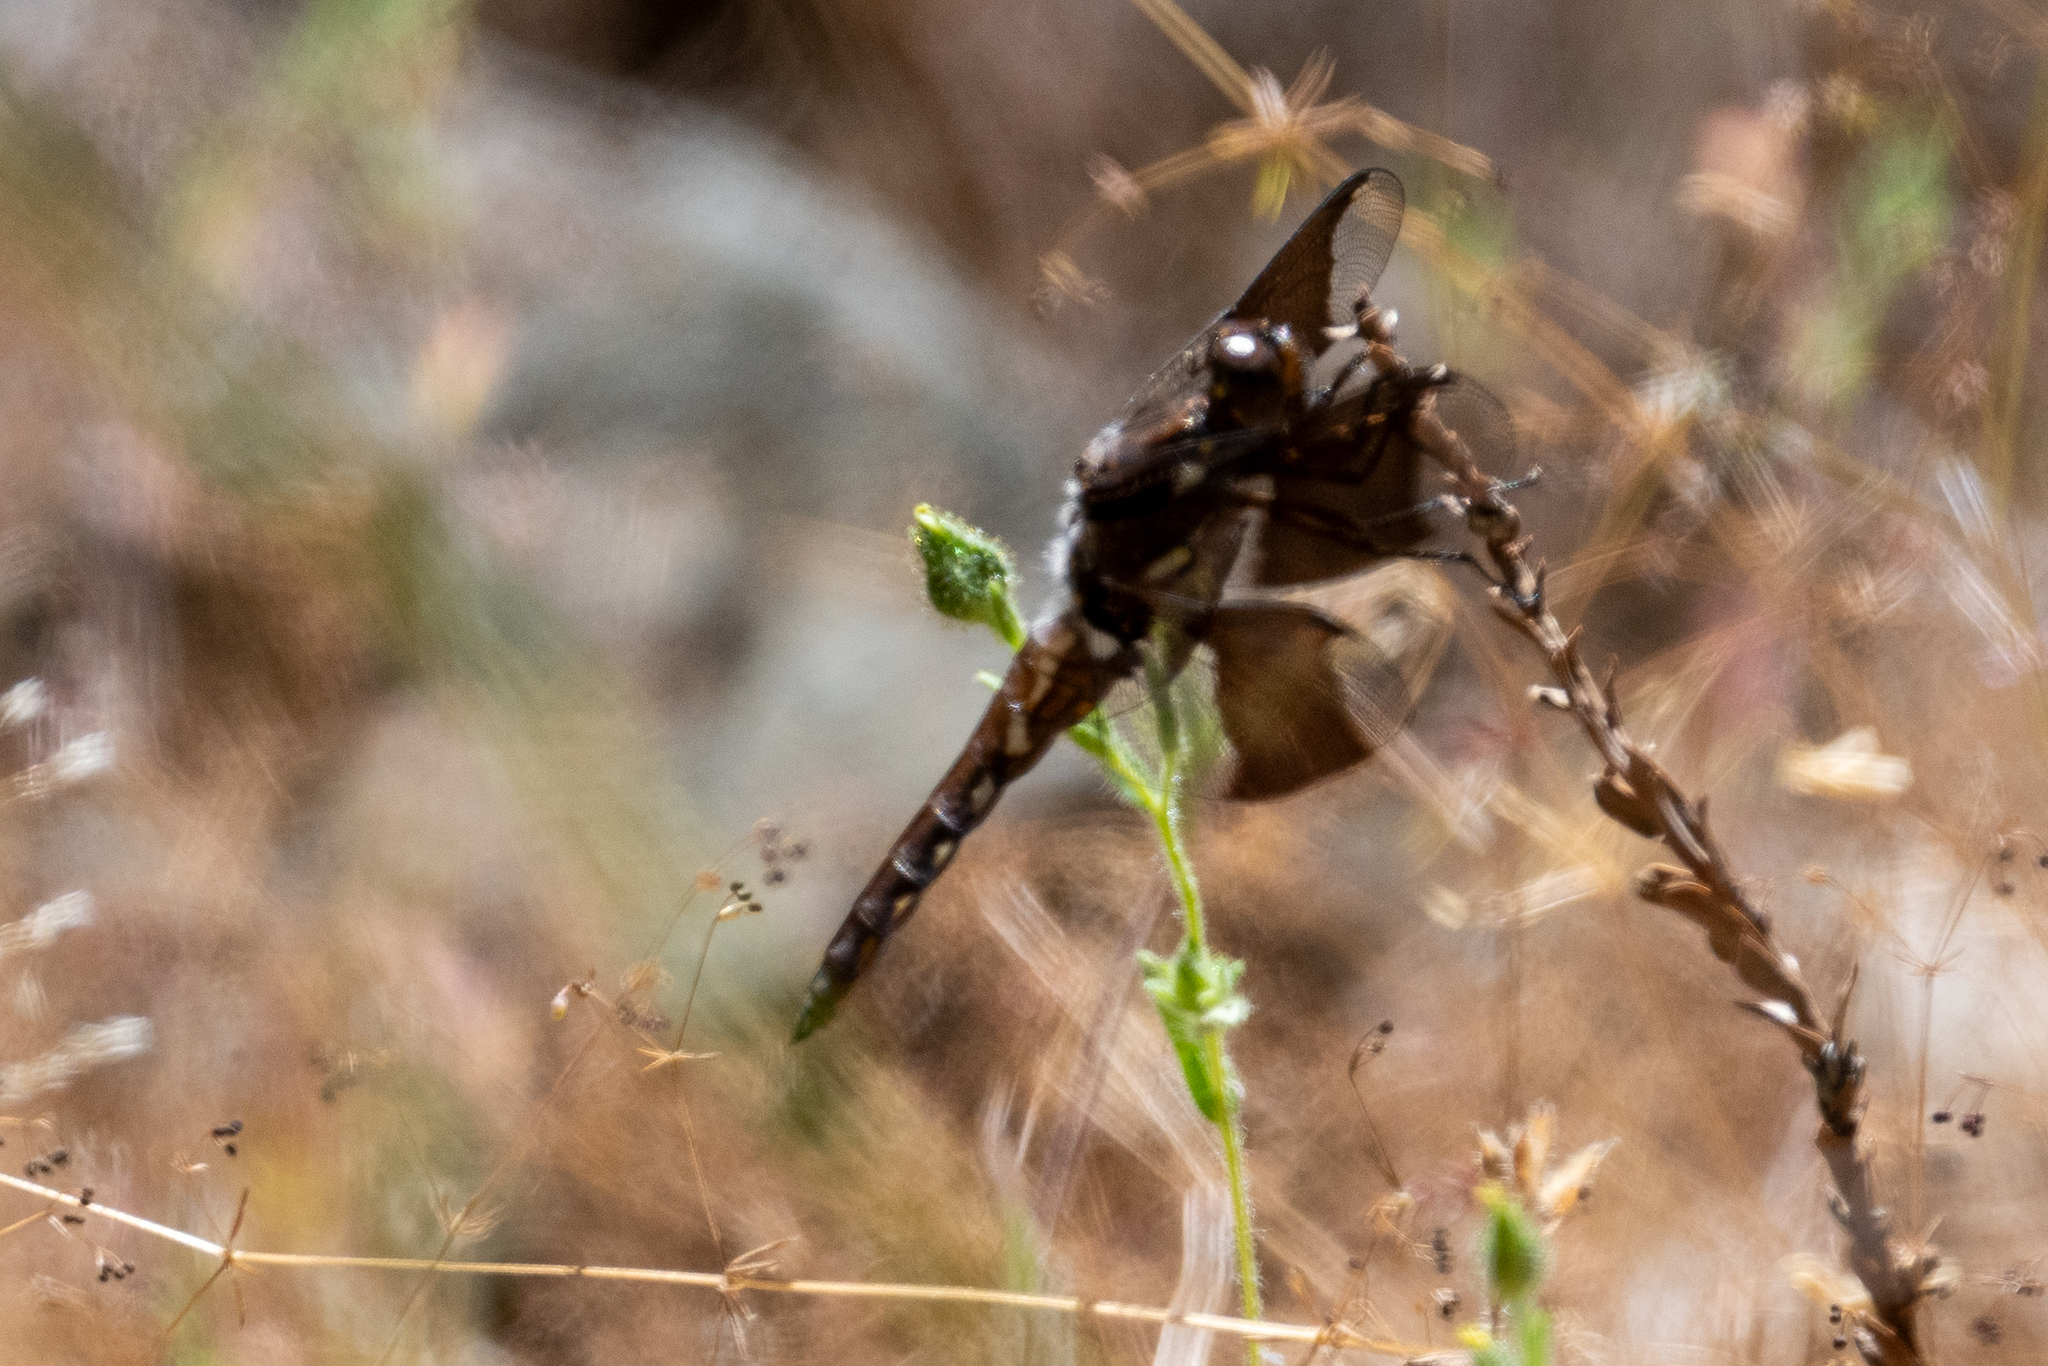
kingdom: Animalia
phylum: Arthropoda
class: Insecta
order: Odonata
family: Libellulidae
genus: Plathemis
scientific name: Plathemis lydia
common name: Common whitetail
